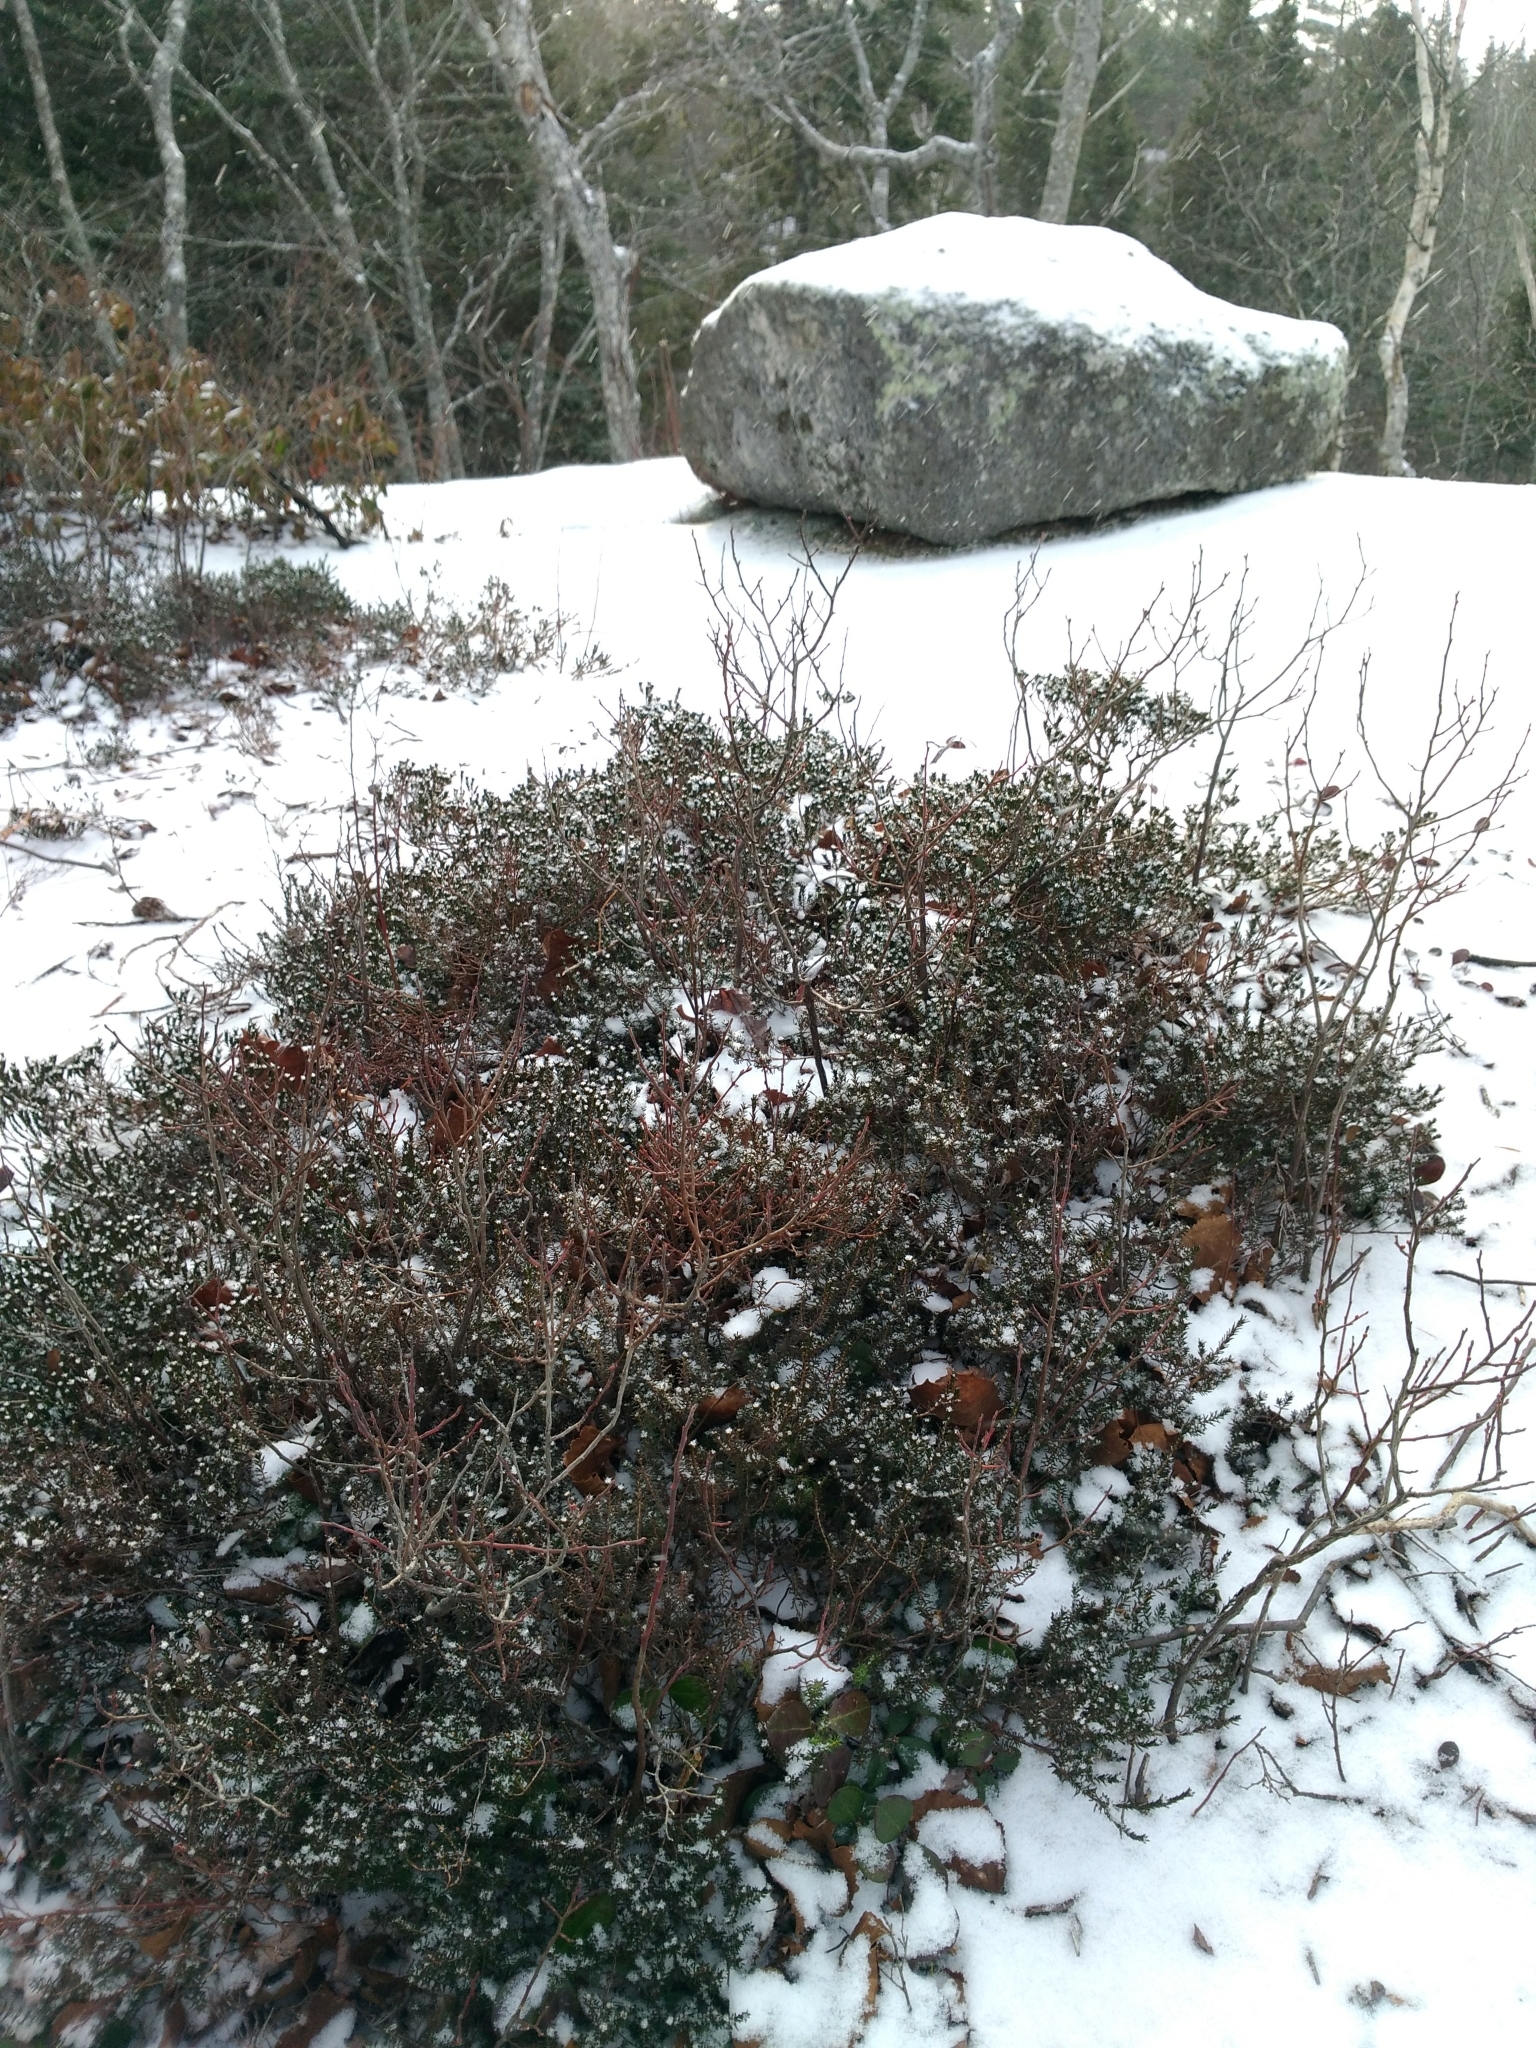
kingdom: Plantae
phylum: Tracheophyta
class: Magnoliopsida
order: Ericales
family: Ericaceae
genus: Corema
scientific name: Corema conradii
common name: Broom-crowberry
